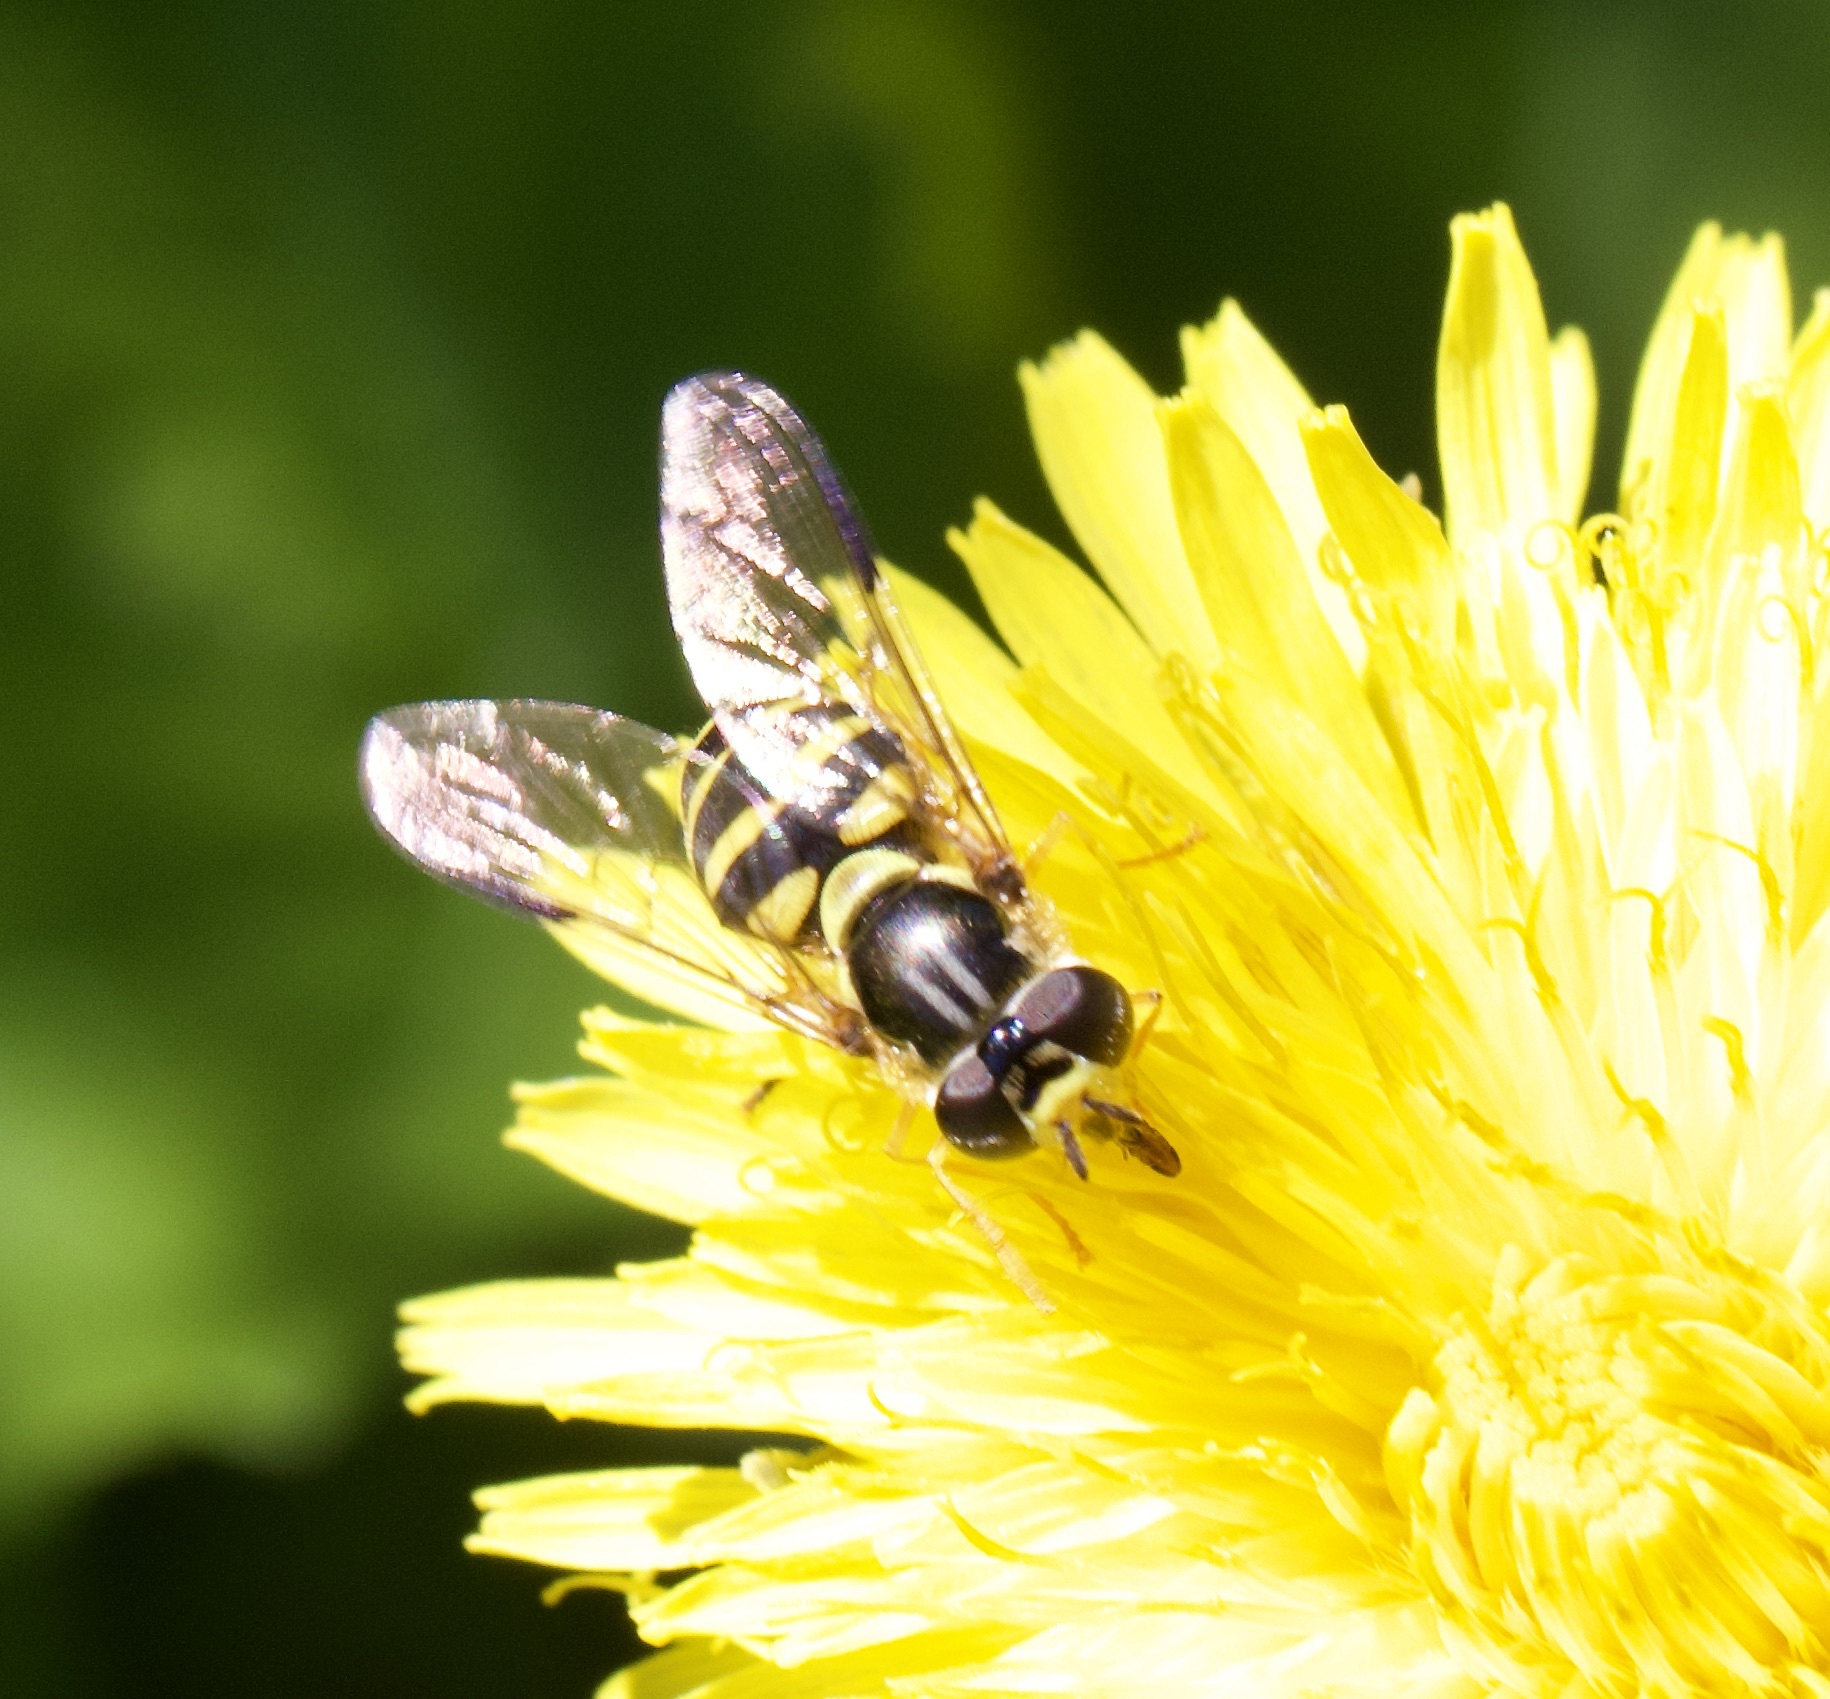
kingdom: Animalia
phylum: Arthropoda
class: Insecta
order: Diptera
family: Syrphidae
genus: Dasysyrphus
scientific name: Dasysyrphus albostriatus
